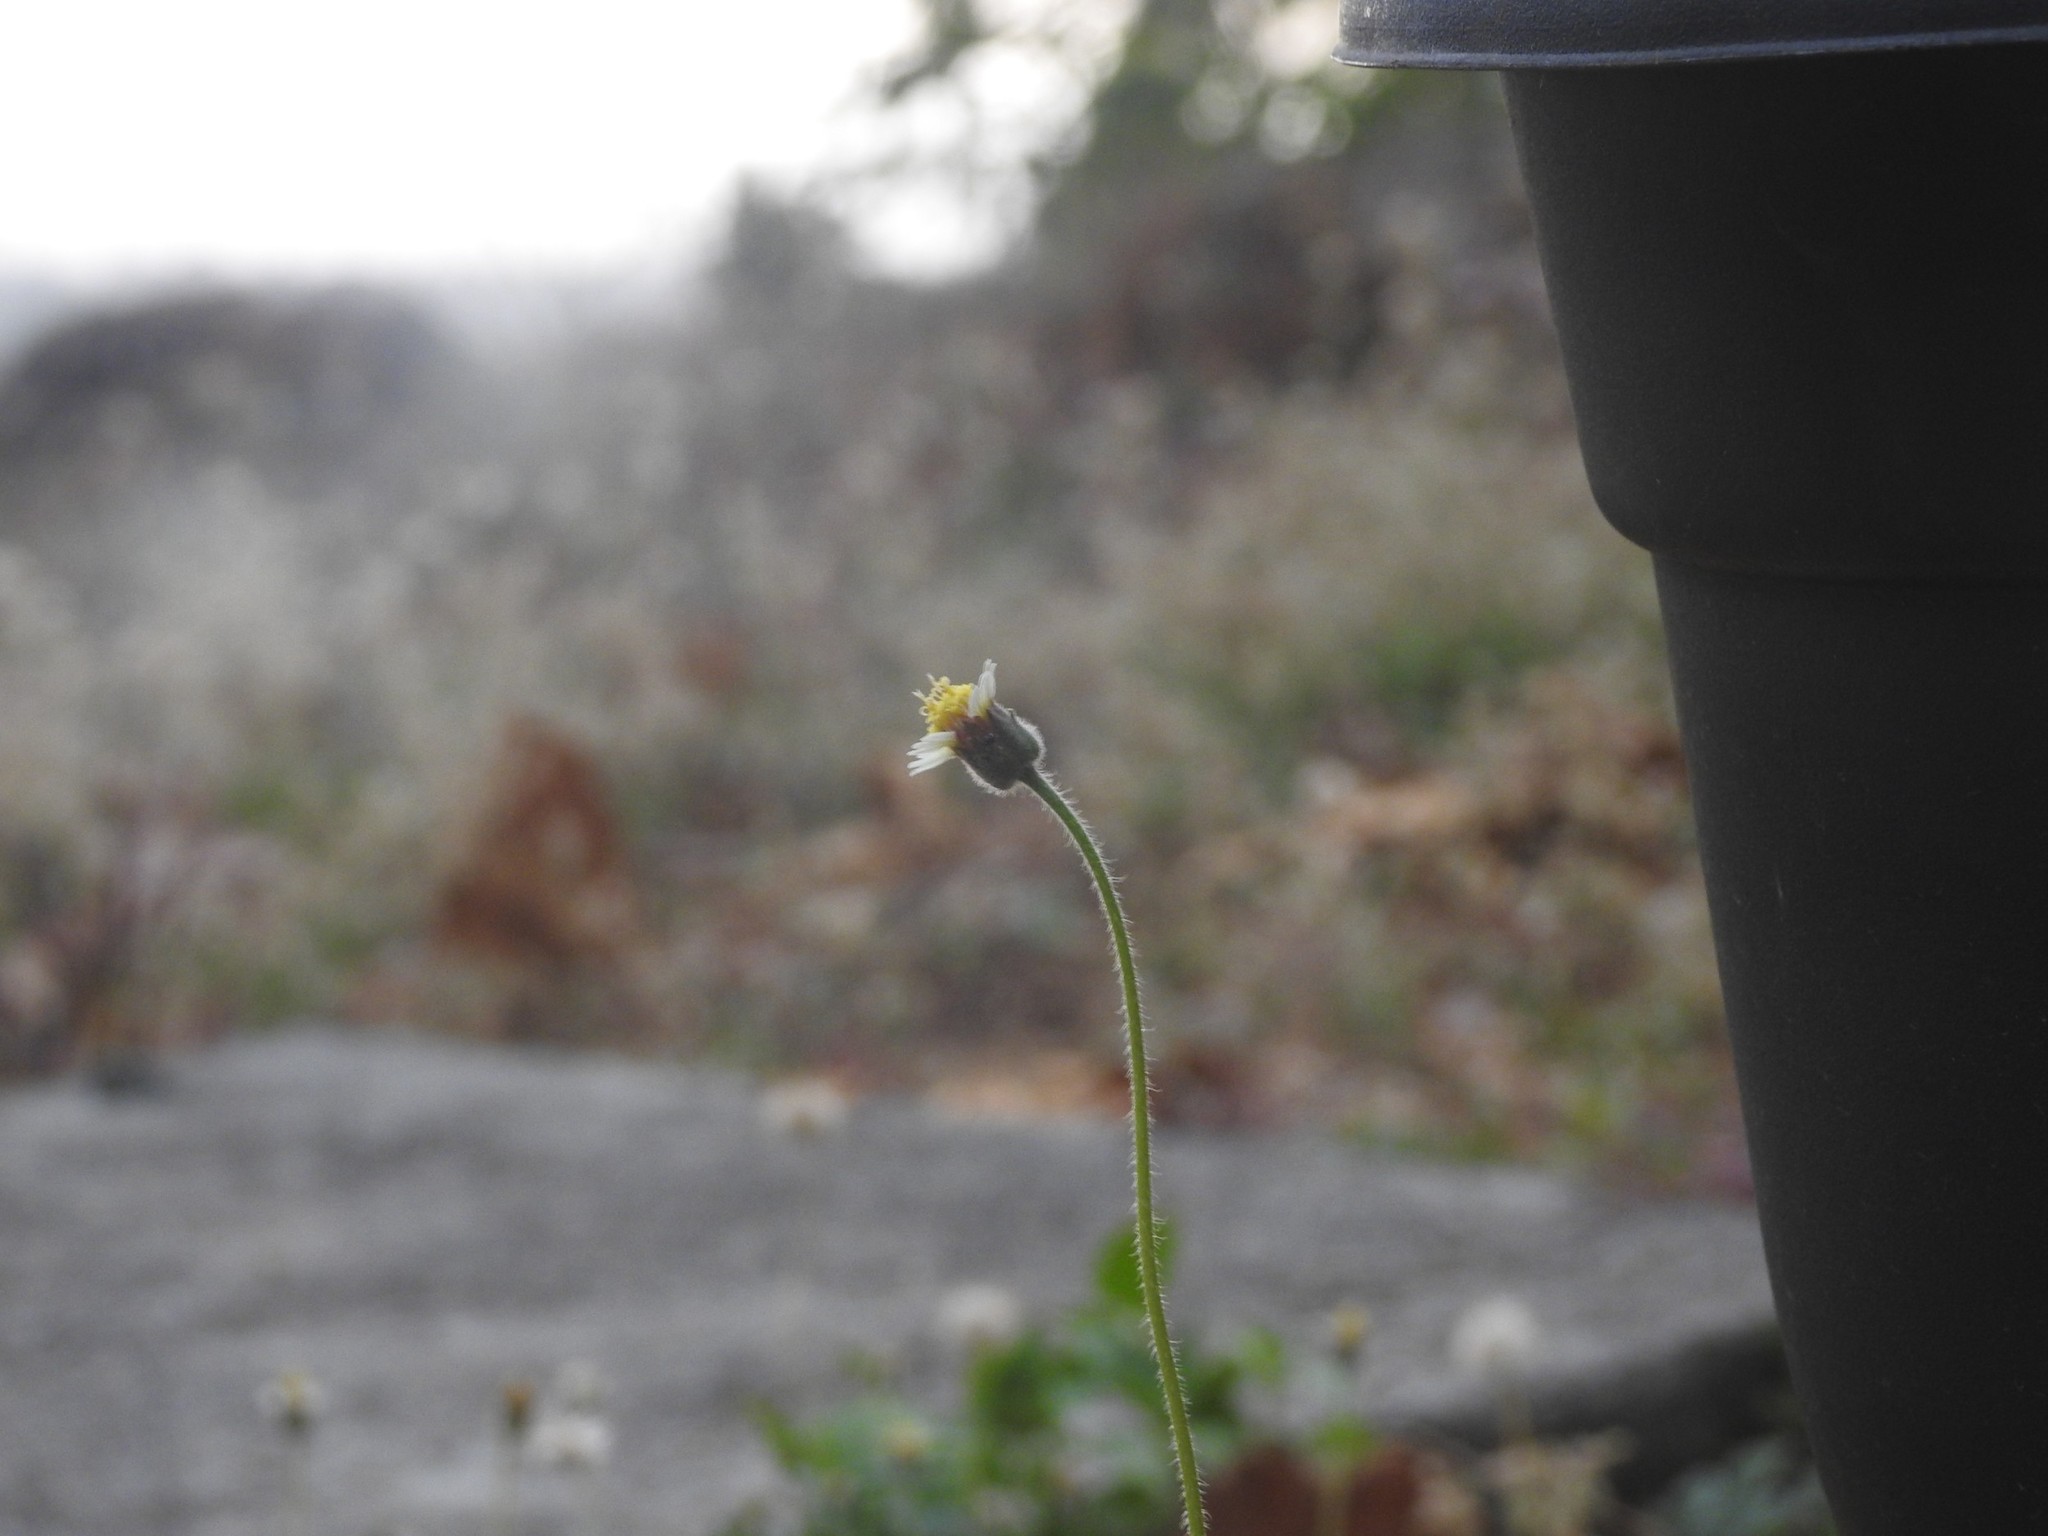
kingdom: Plantae
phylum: Tracheophyta
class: Magnoliopsida
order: Asterales
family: Asteraceae
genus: Tridax
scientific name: Tridax procumbens
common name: Coatbuttons
